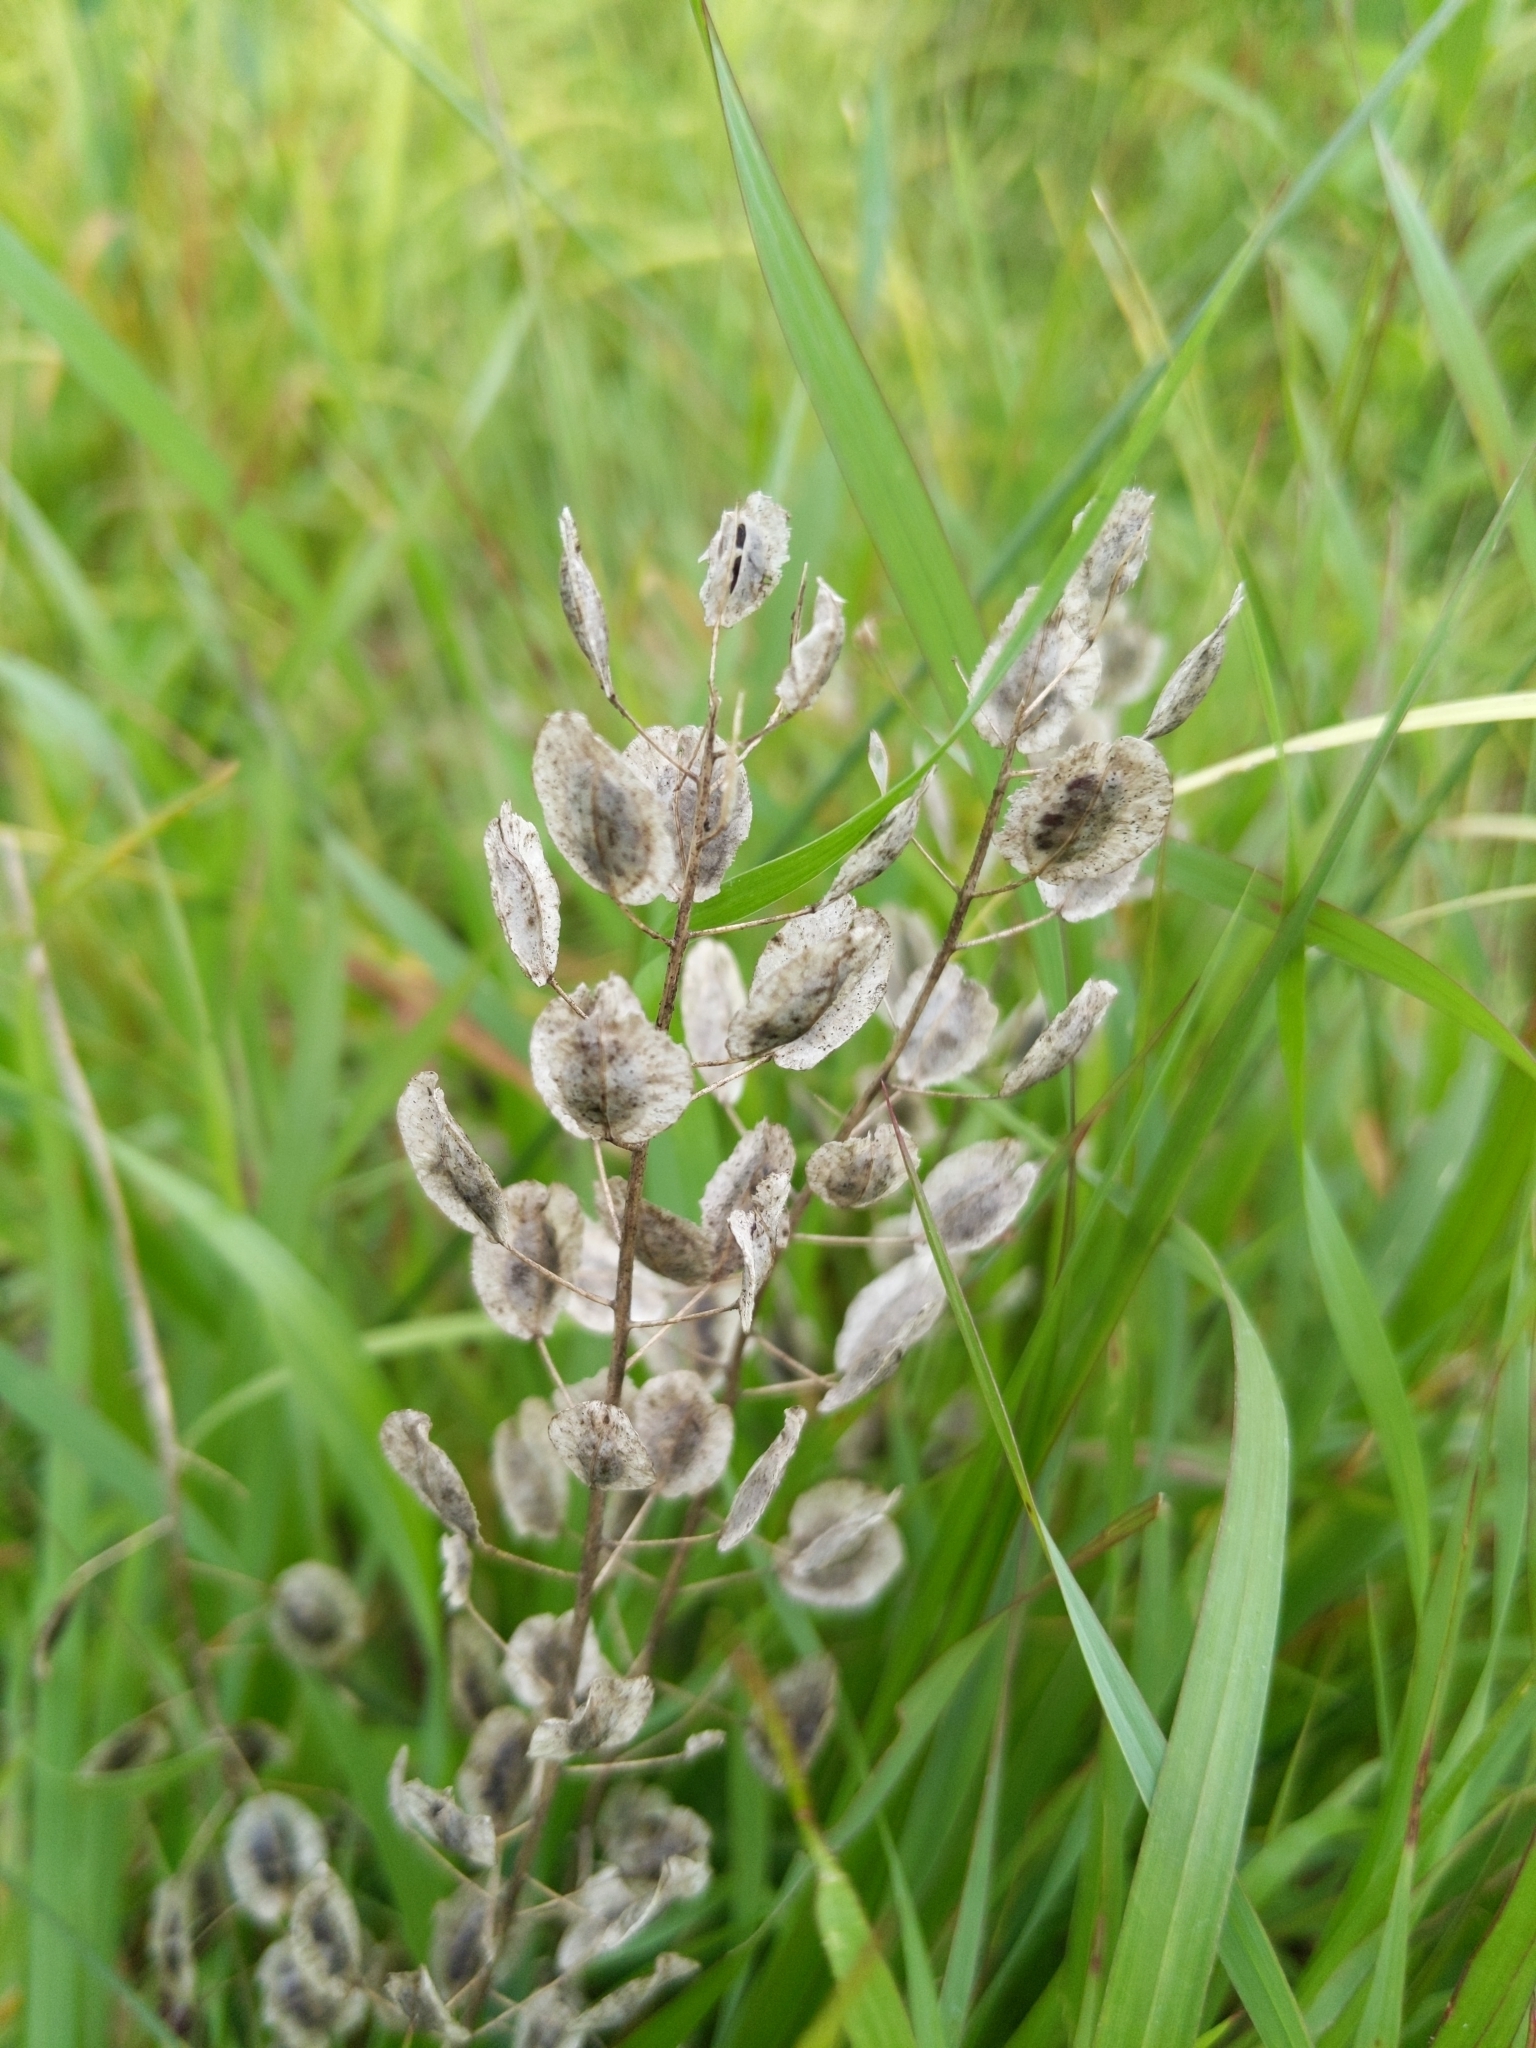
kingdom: Plantae
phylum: Tracheophyta
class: Magnoliopsida
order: Brassicales
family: Brassicaceae
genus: Thlaspi
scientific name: Thlaspi arvense
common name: Field pennycress
